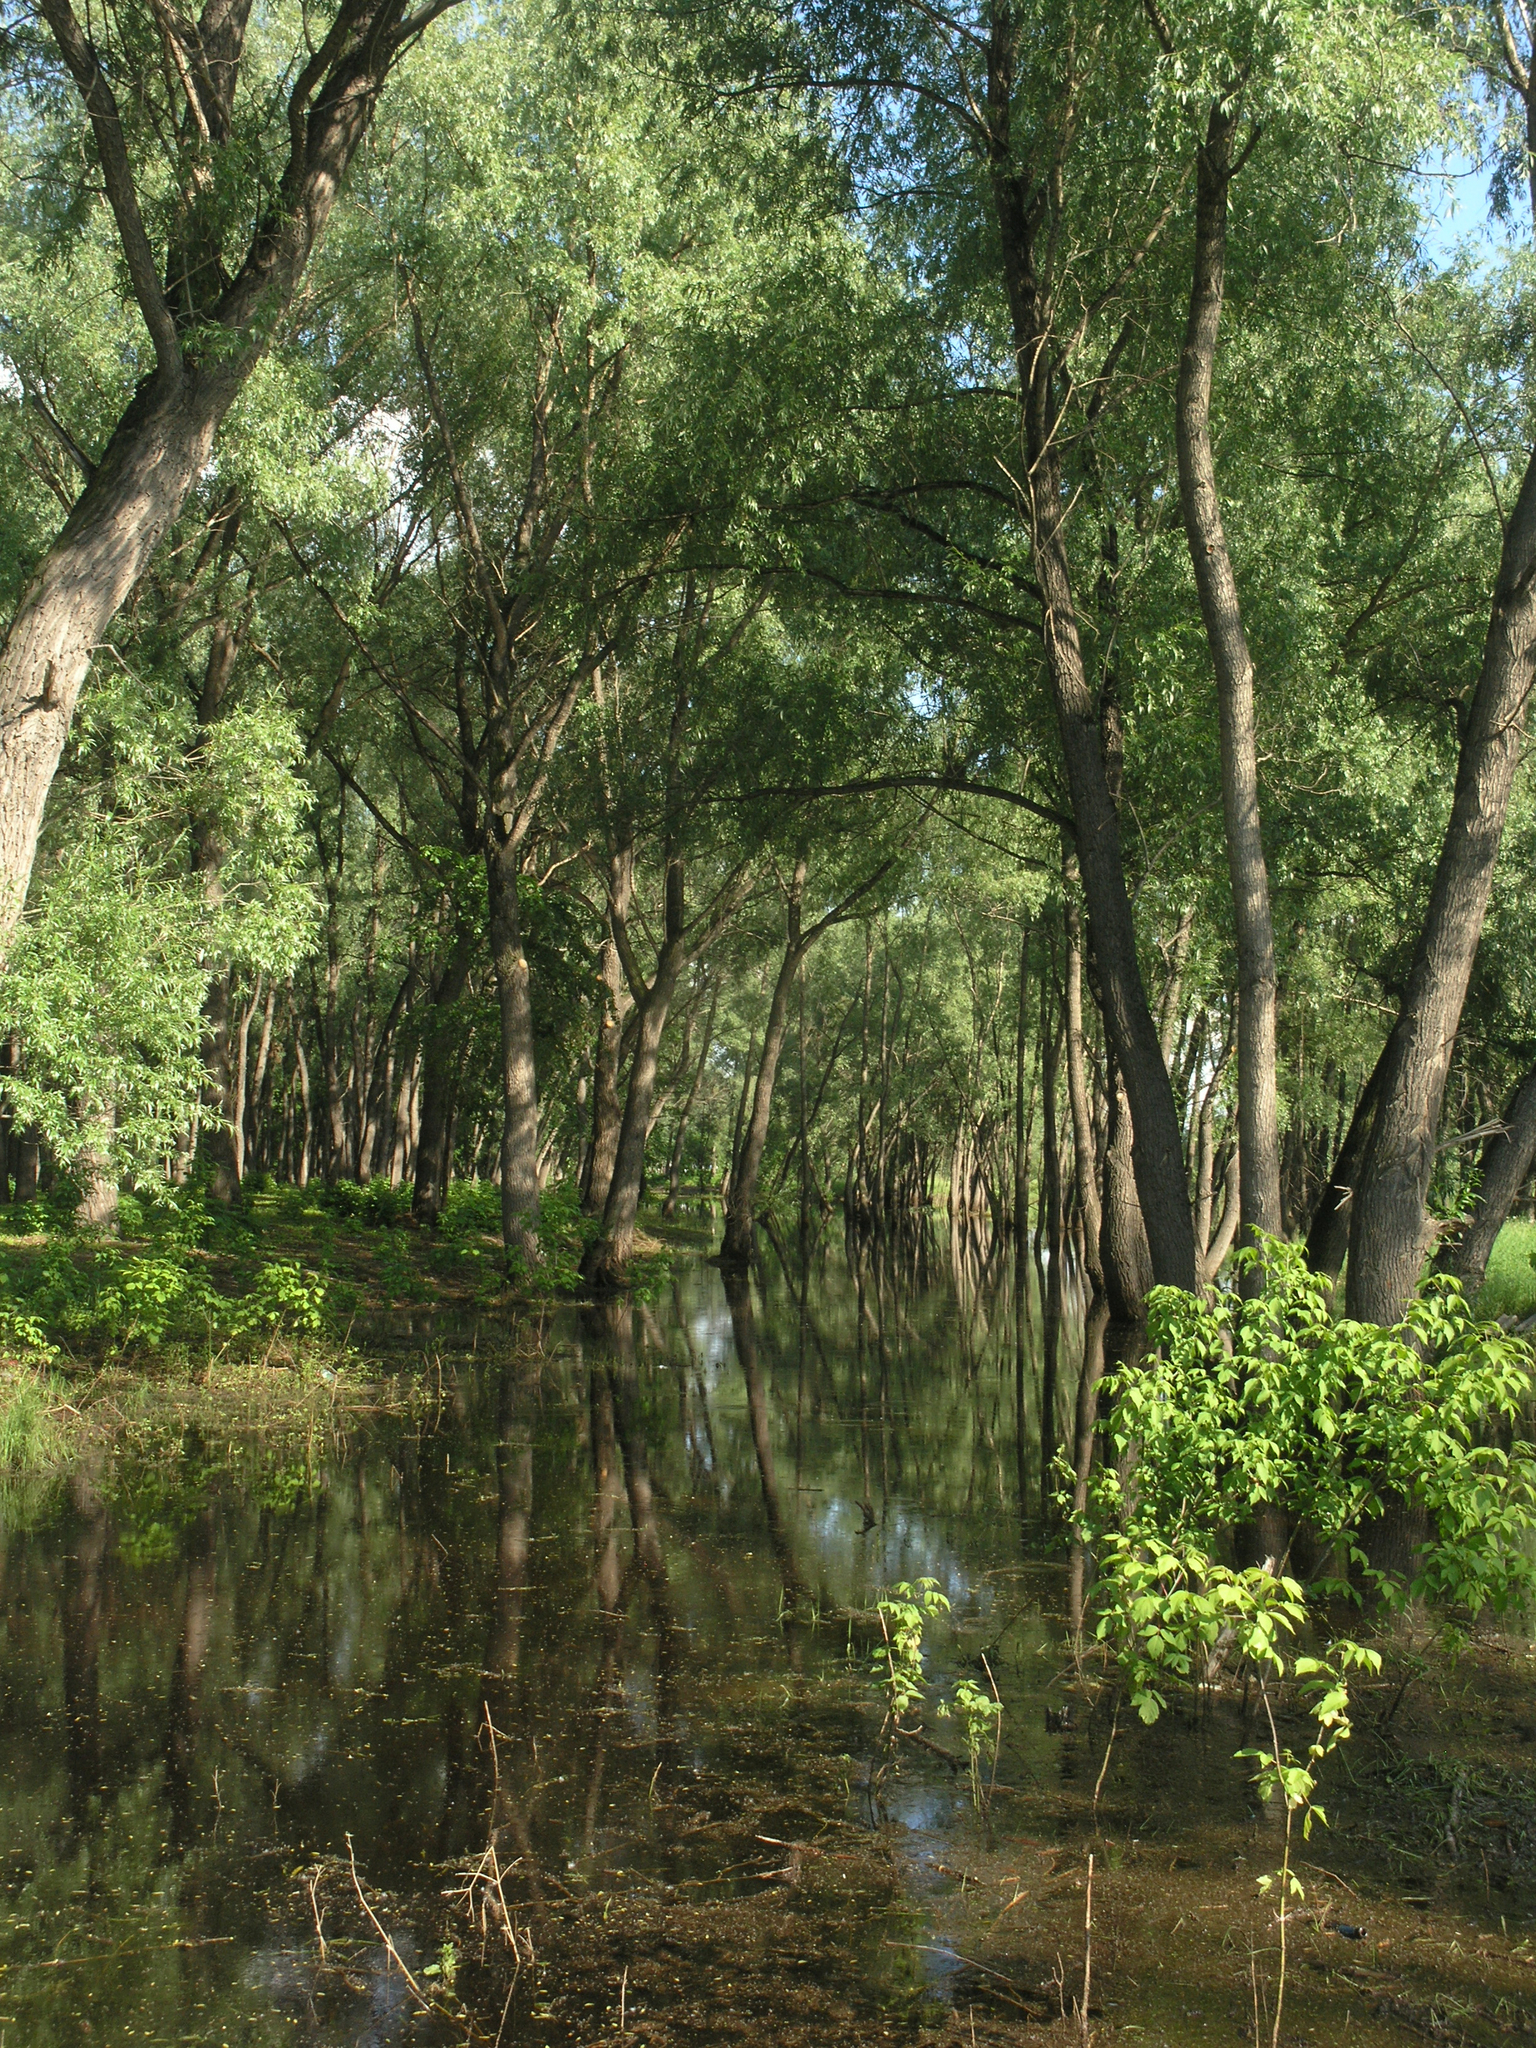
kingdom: Plantae
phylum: Tracheophyta
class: Magnoliopsida
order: Malpighiales
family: Salicaceae
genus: Salix
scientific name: Salix alba
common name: White willow
